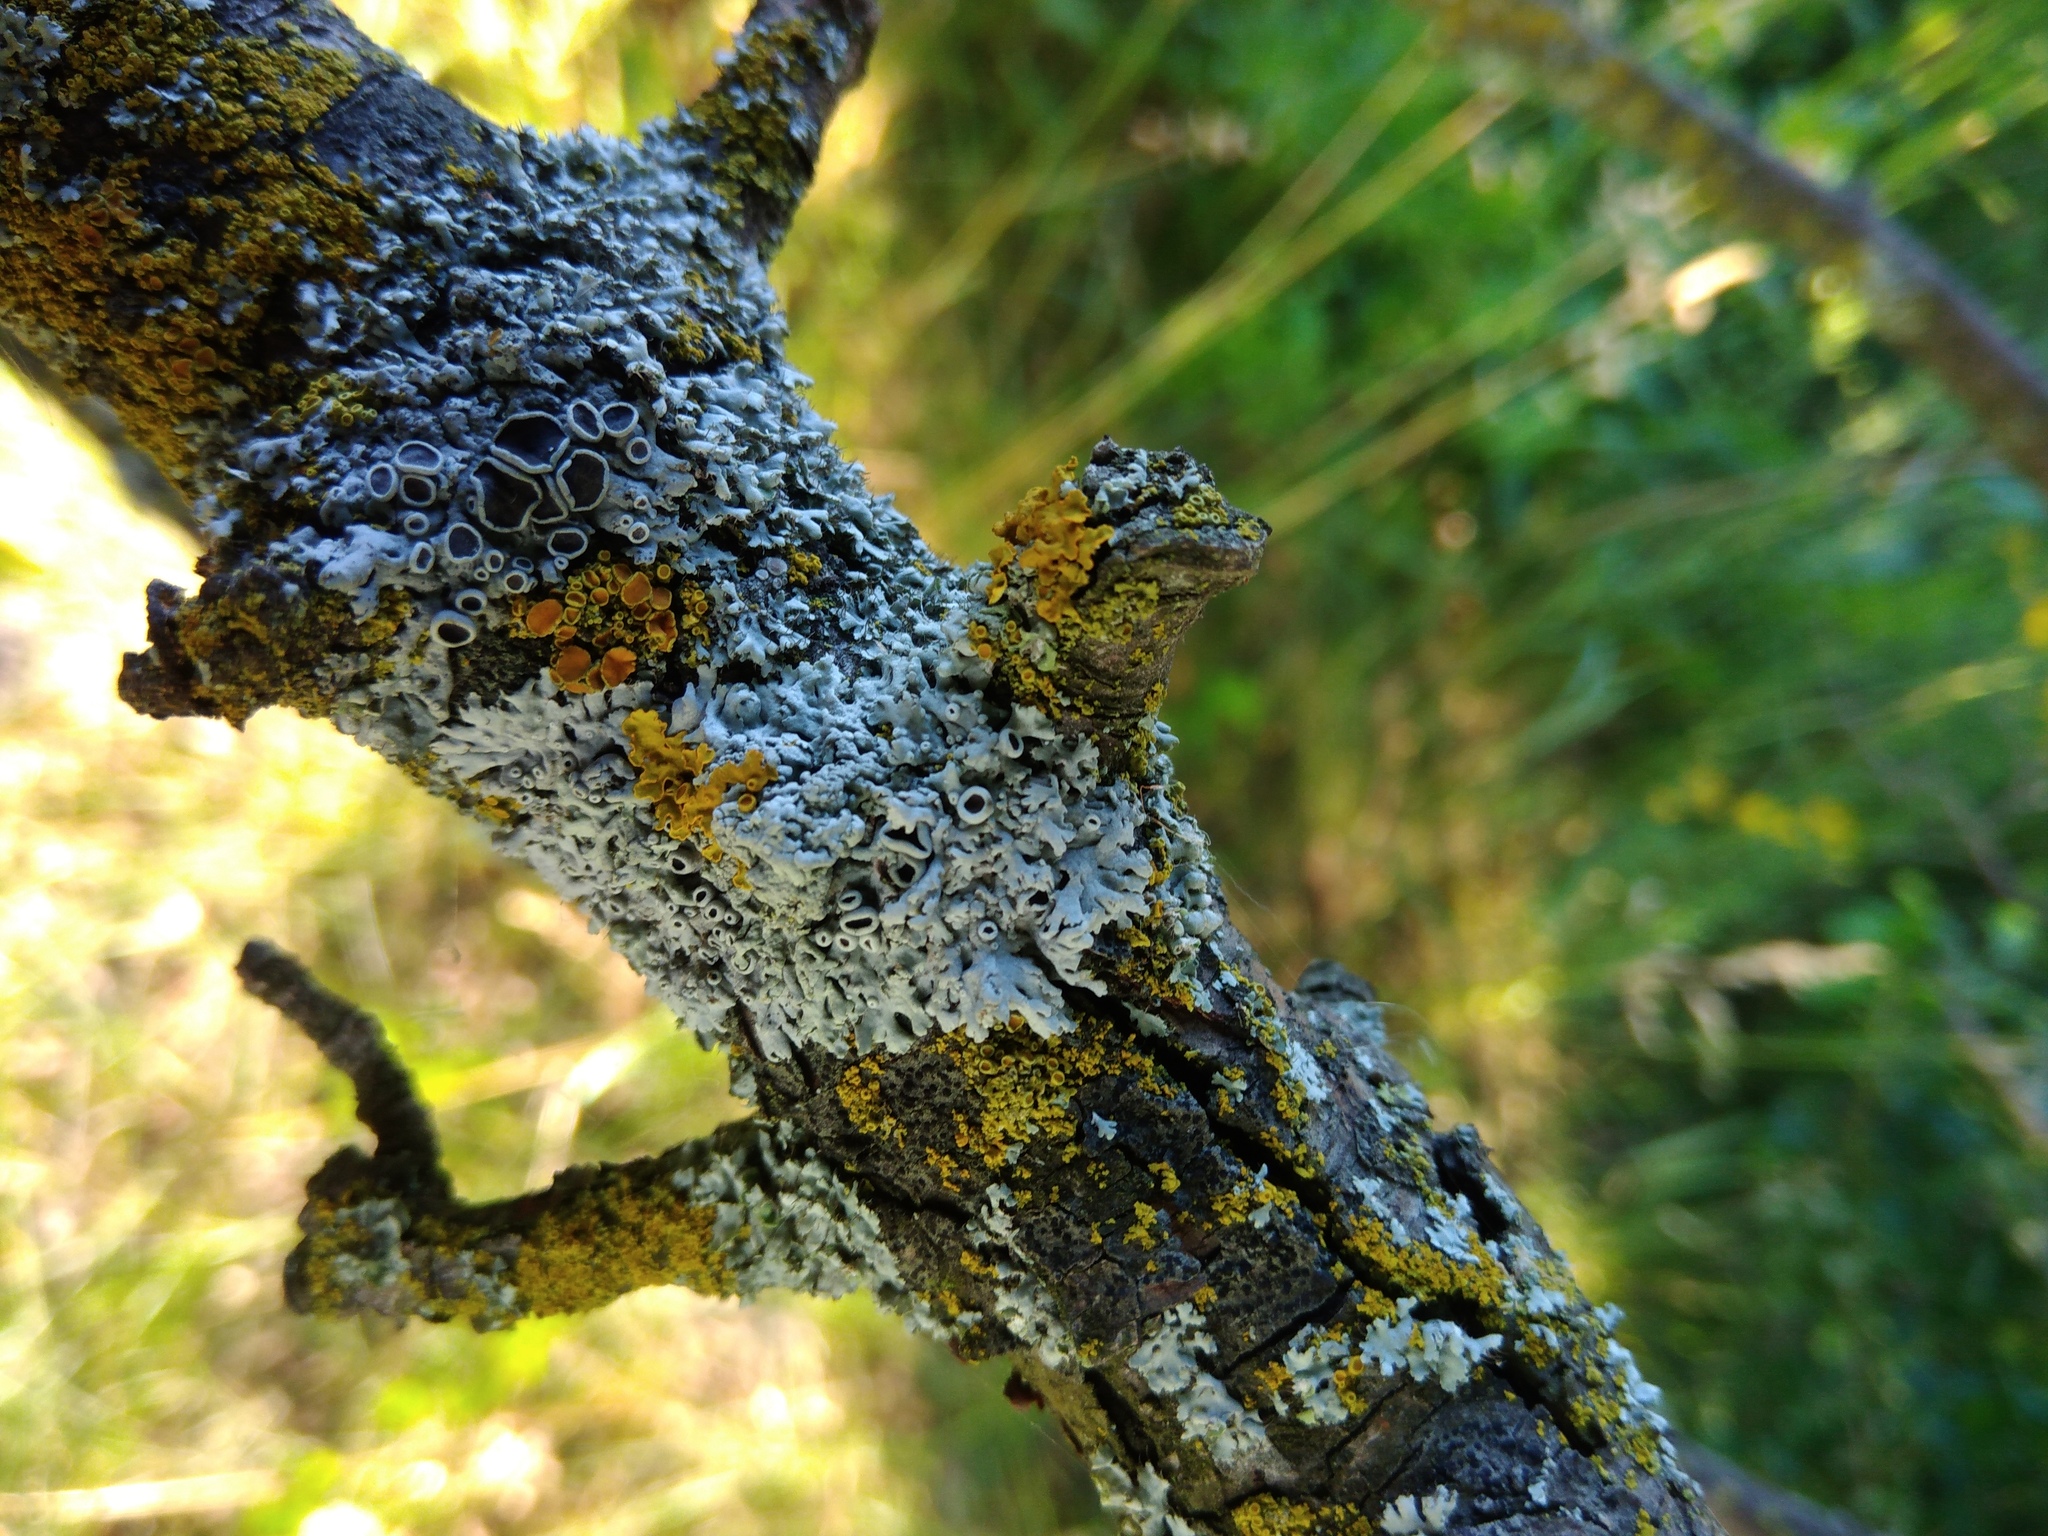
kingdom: Fungi
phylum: Ascomycota
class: Lecanoromycetes
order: Caliciales
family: Physciaceae
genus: Physcia
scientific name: Physcia stellaris
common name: Star rosette lichen
